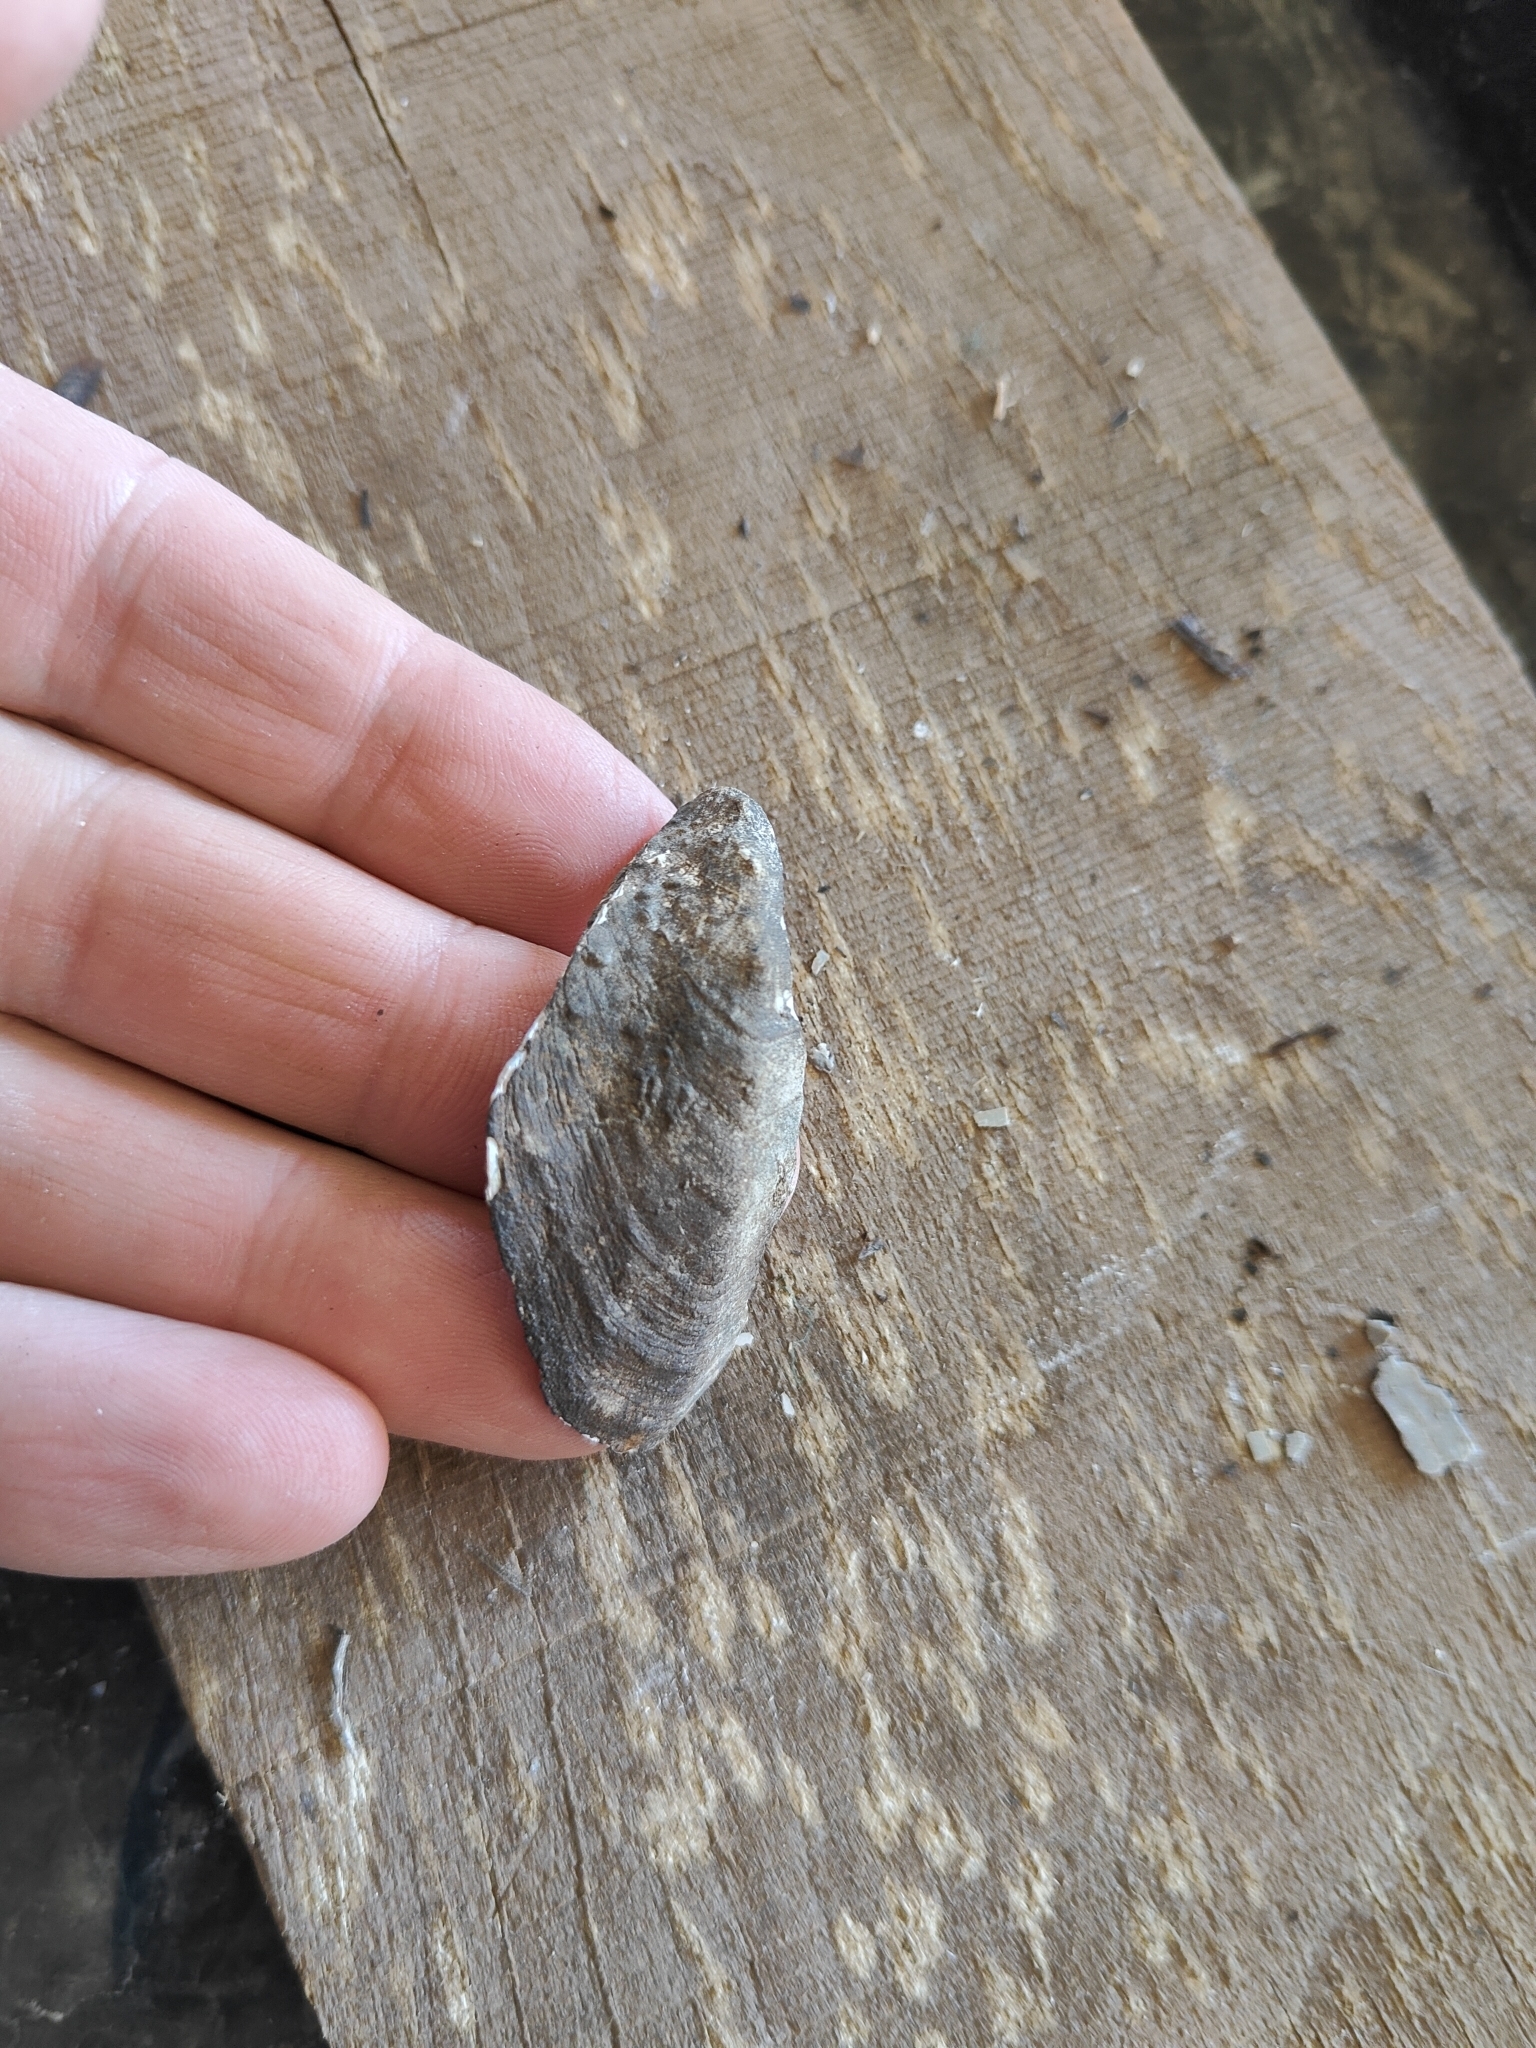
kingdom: Animalia
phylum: Mollusca
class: Bivalvia
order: Unionida
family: Unionidae
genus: Quadrula
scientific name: Quadrula quadrula
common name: Mapleleaf
